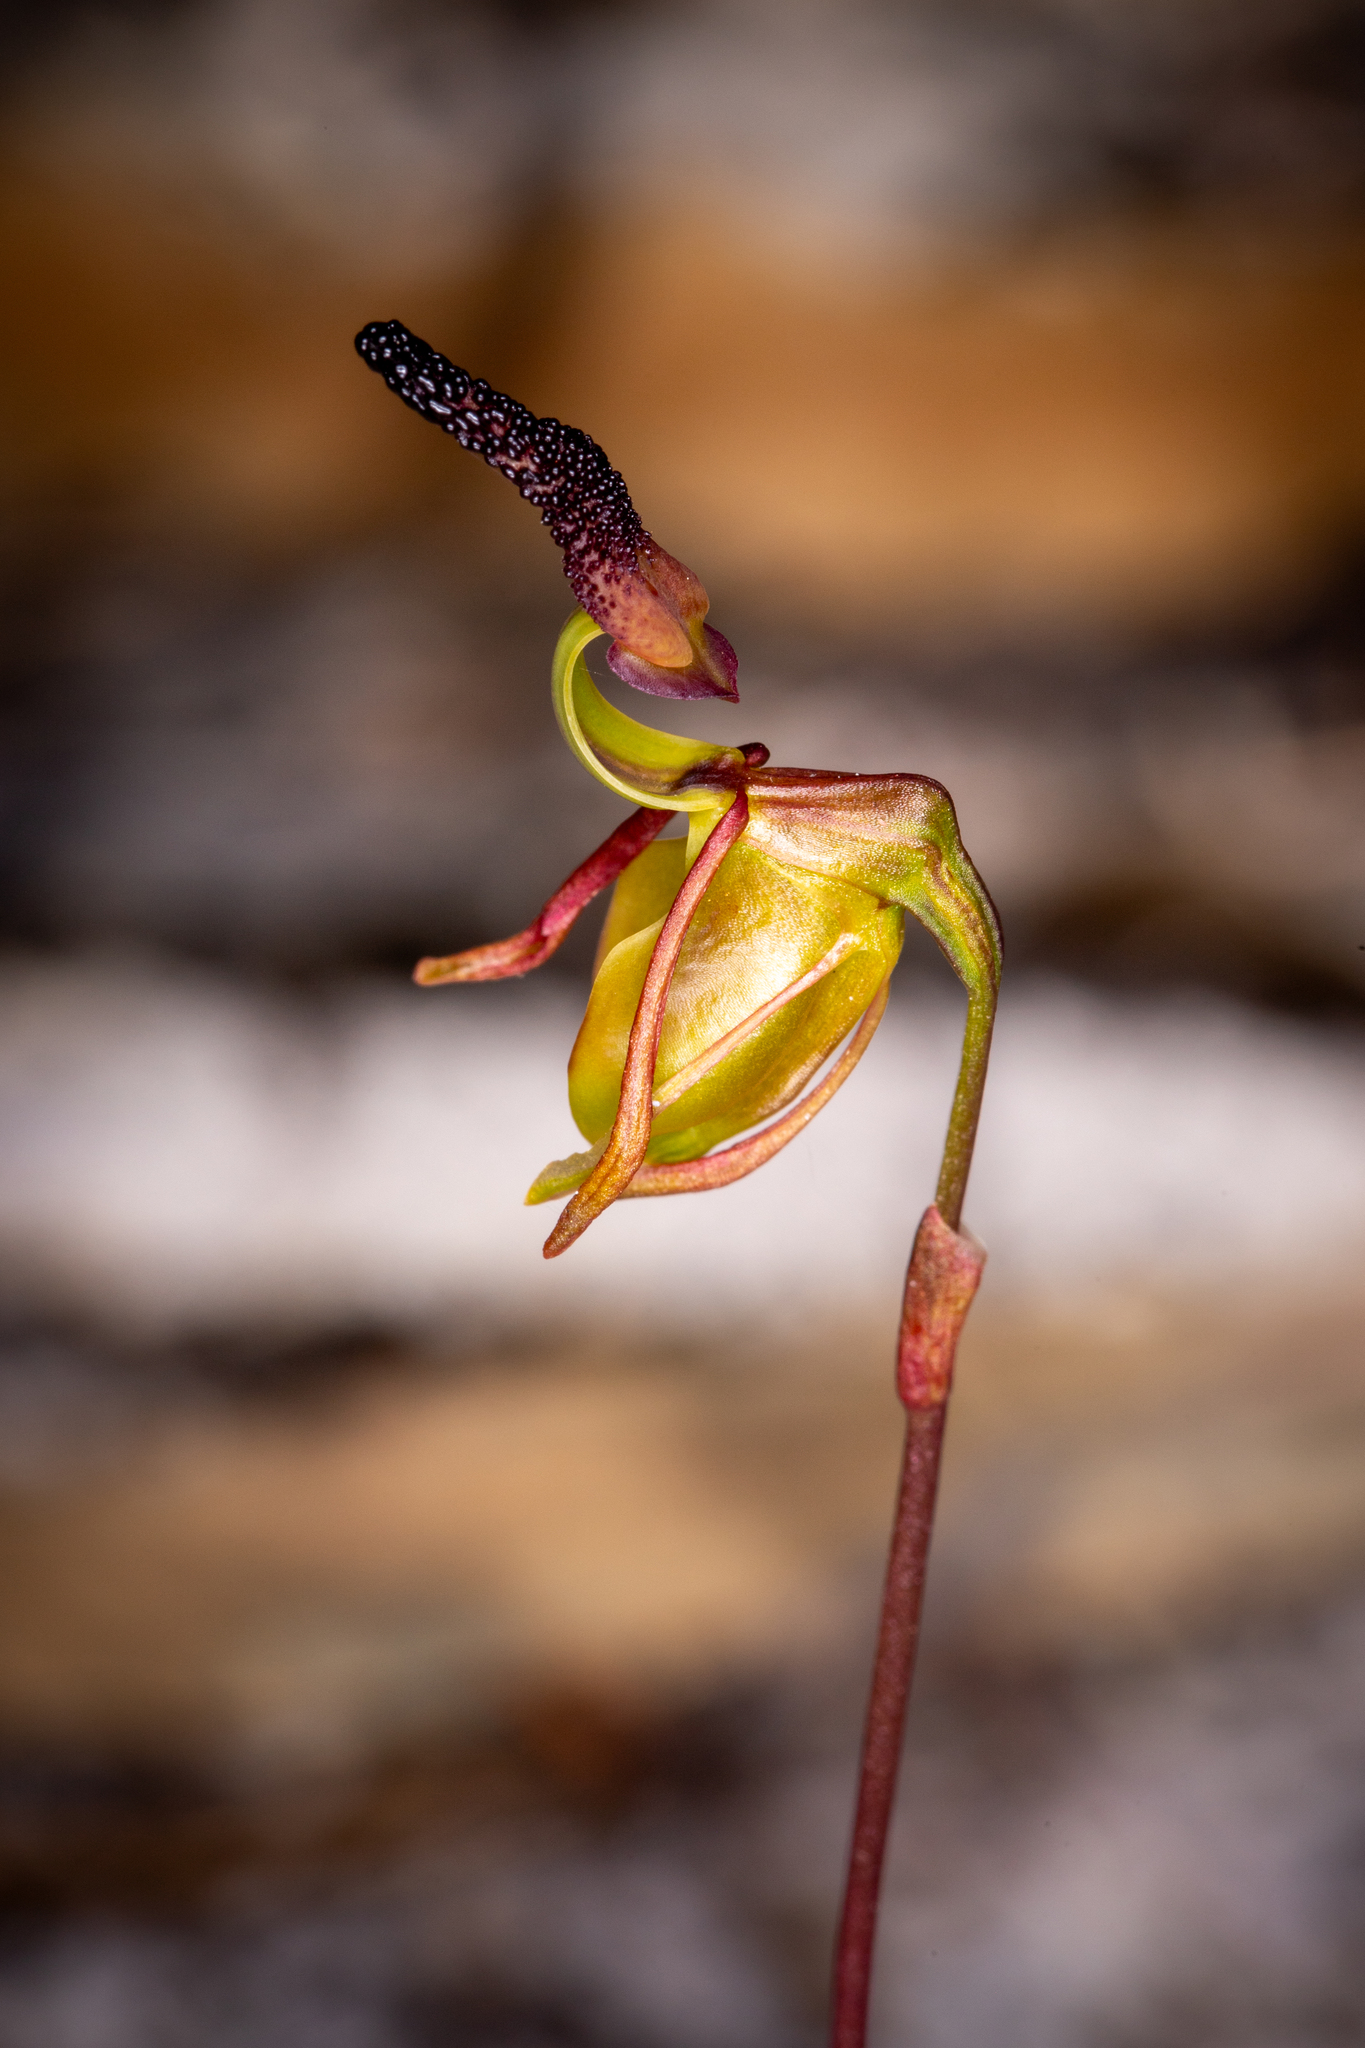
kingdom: Plantae
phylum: Tracheophyta
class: Liliopsida
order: Asparagales
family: Orchidaceae
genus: Caleana
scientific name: Caleana nigrita
